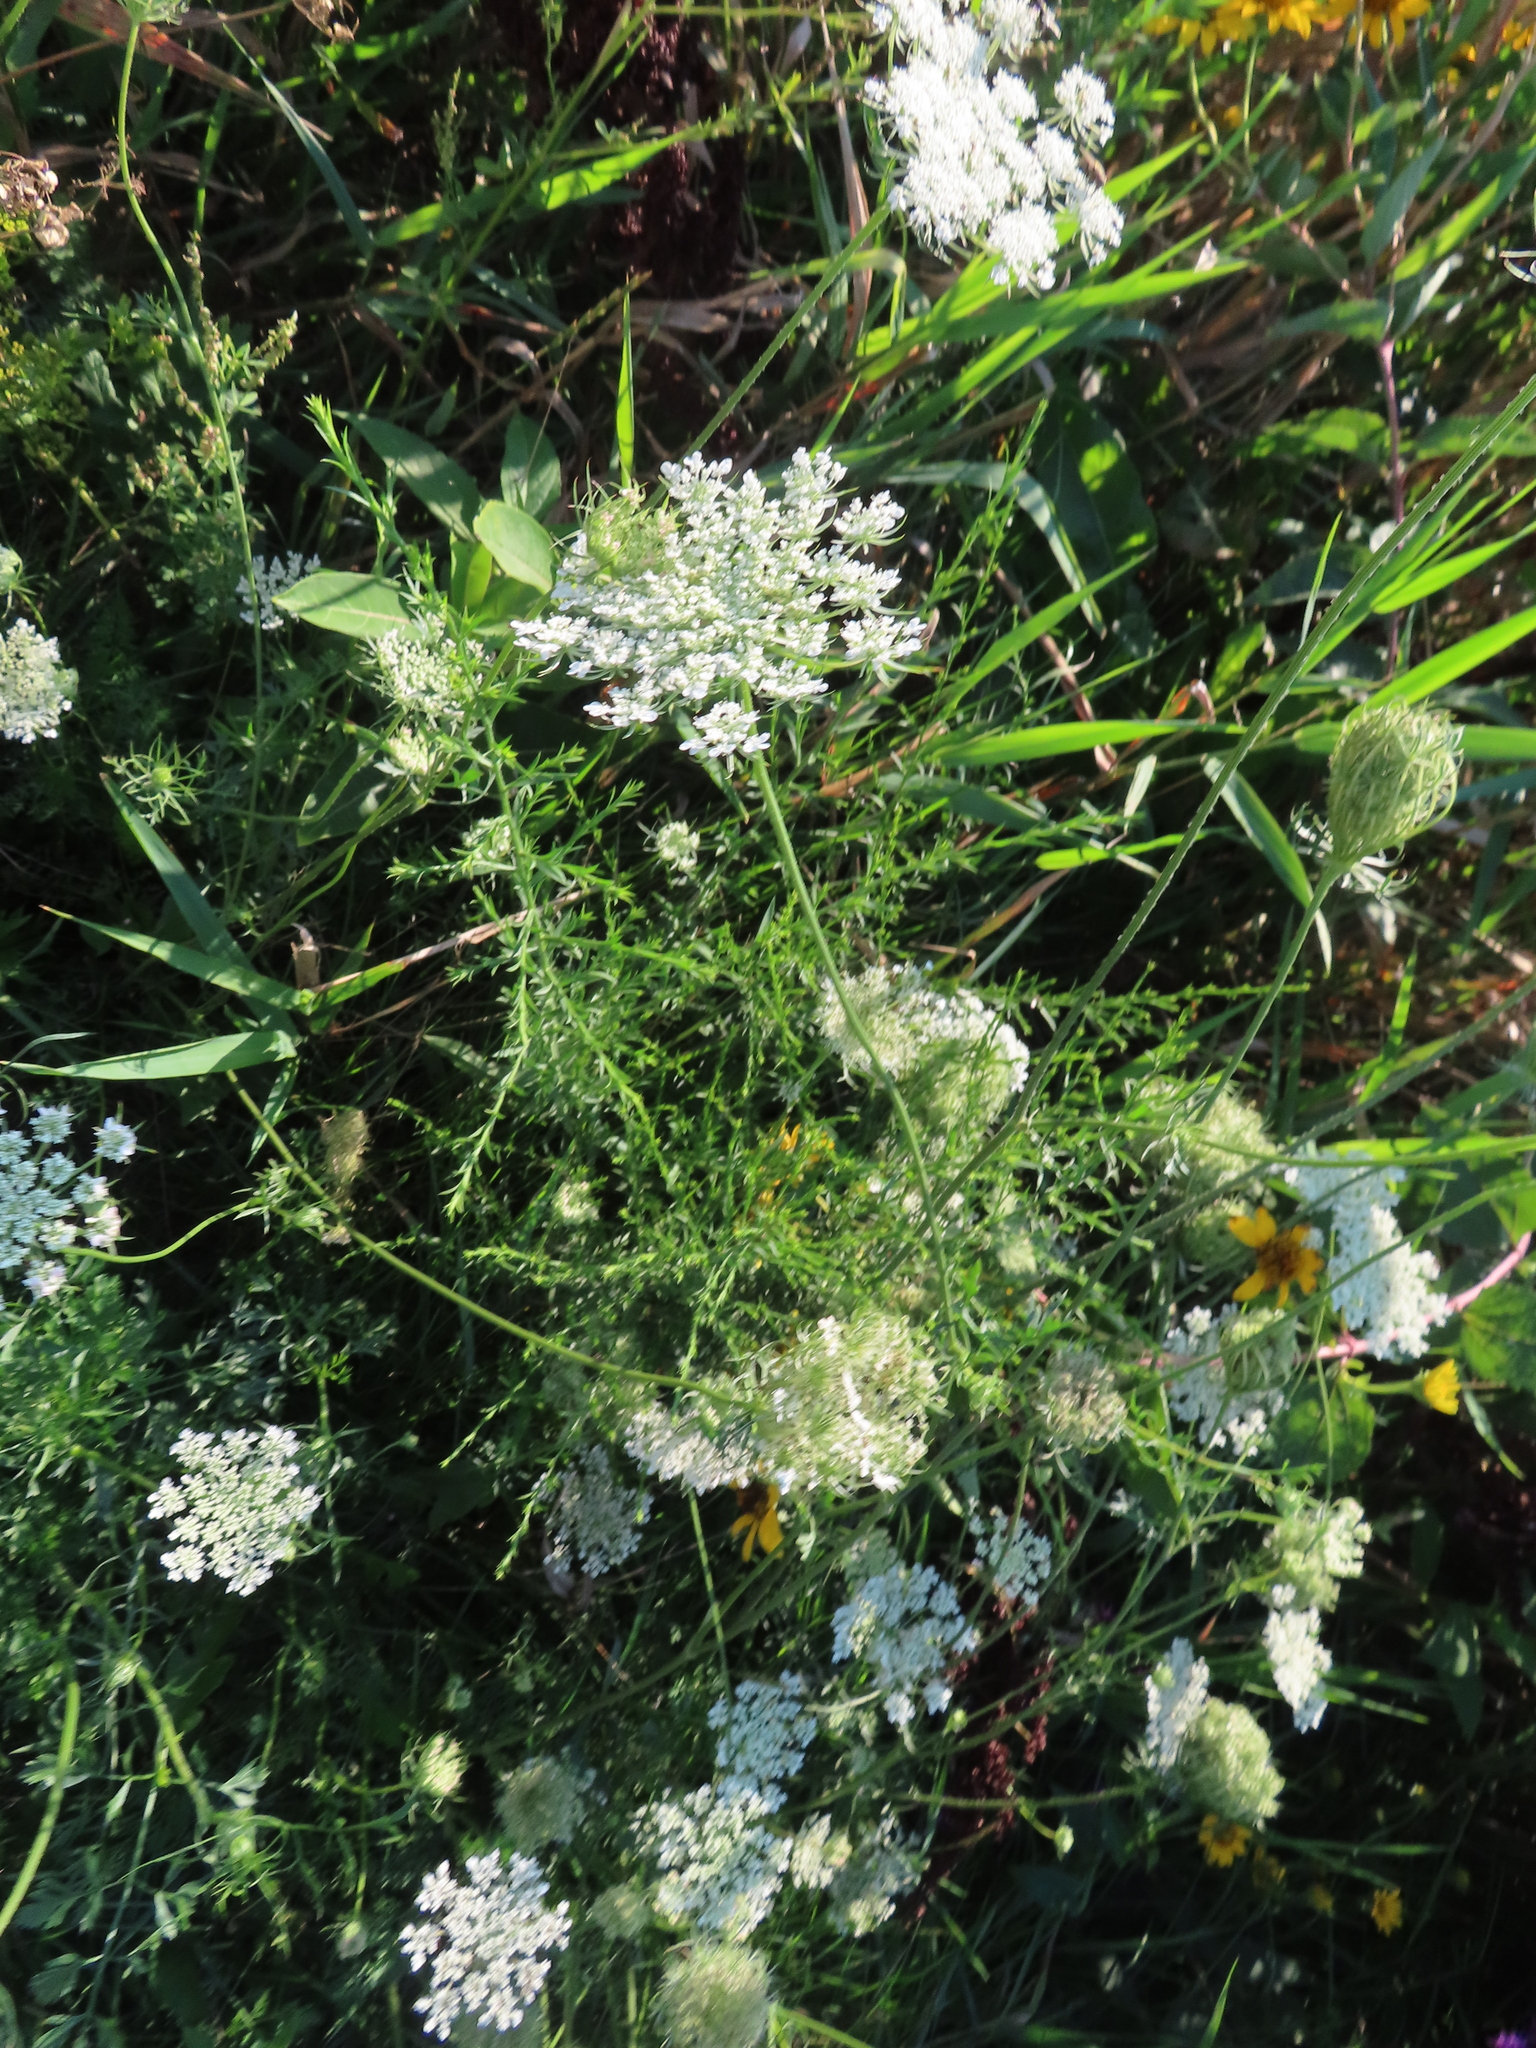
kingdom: Plantae
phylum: Tracheophyta
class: Magnoliopsida
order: Apiales
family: Apiaceae
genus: Daucus
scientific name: Daucus carota
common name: Wild carrot
